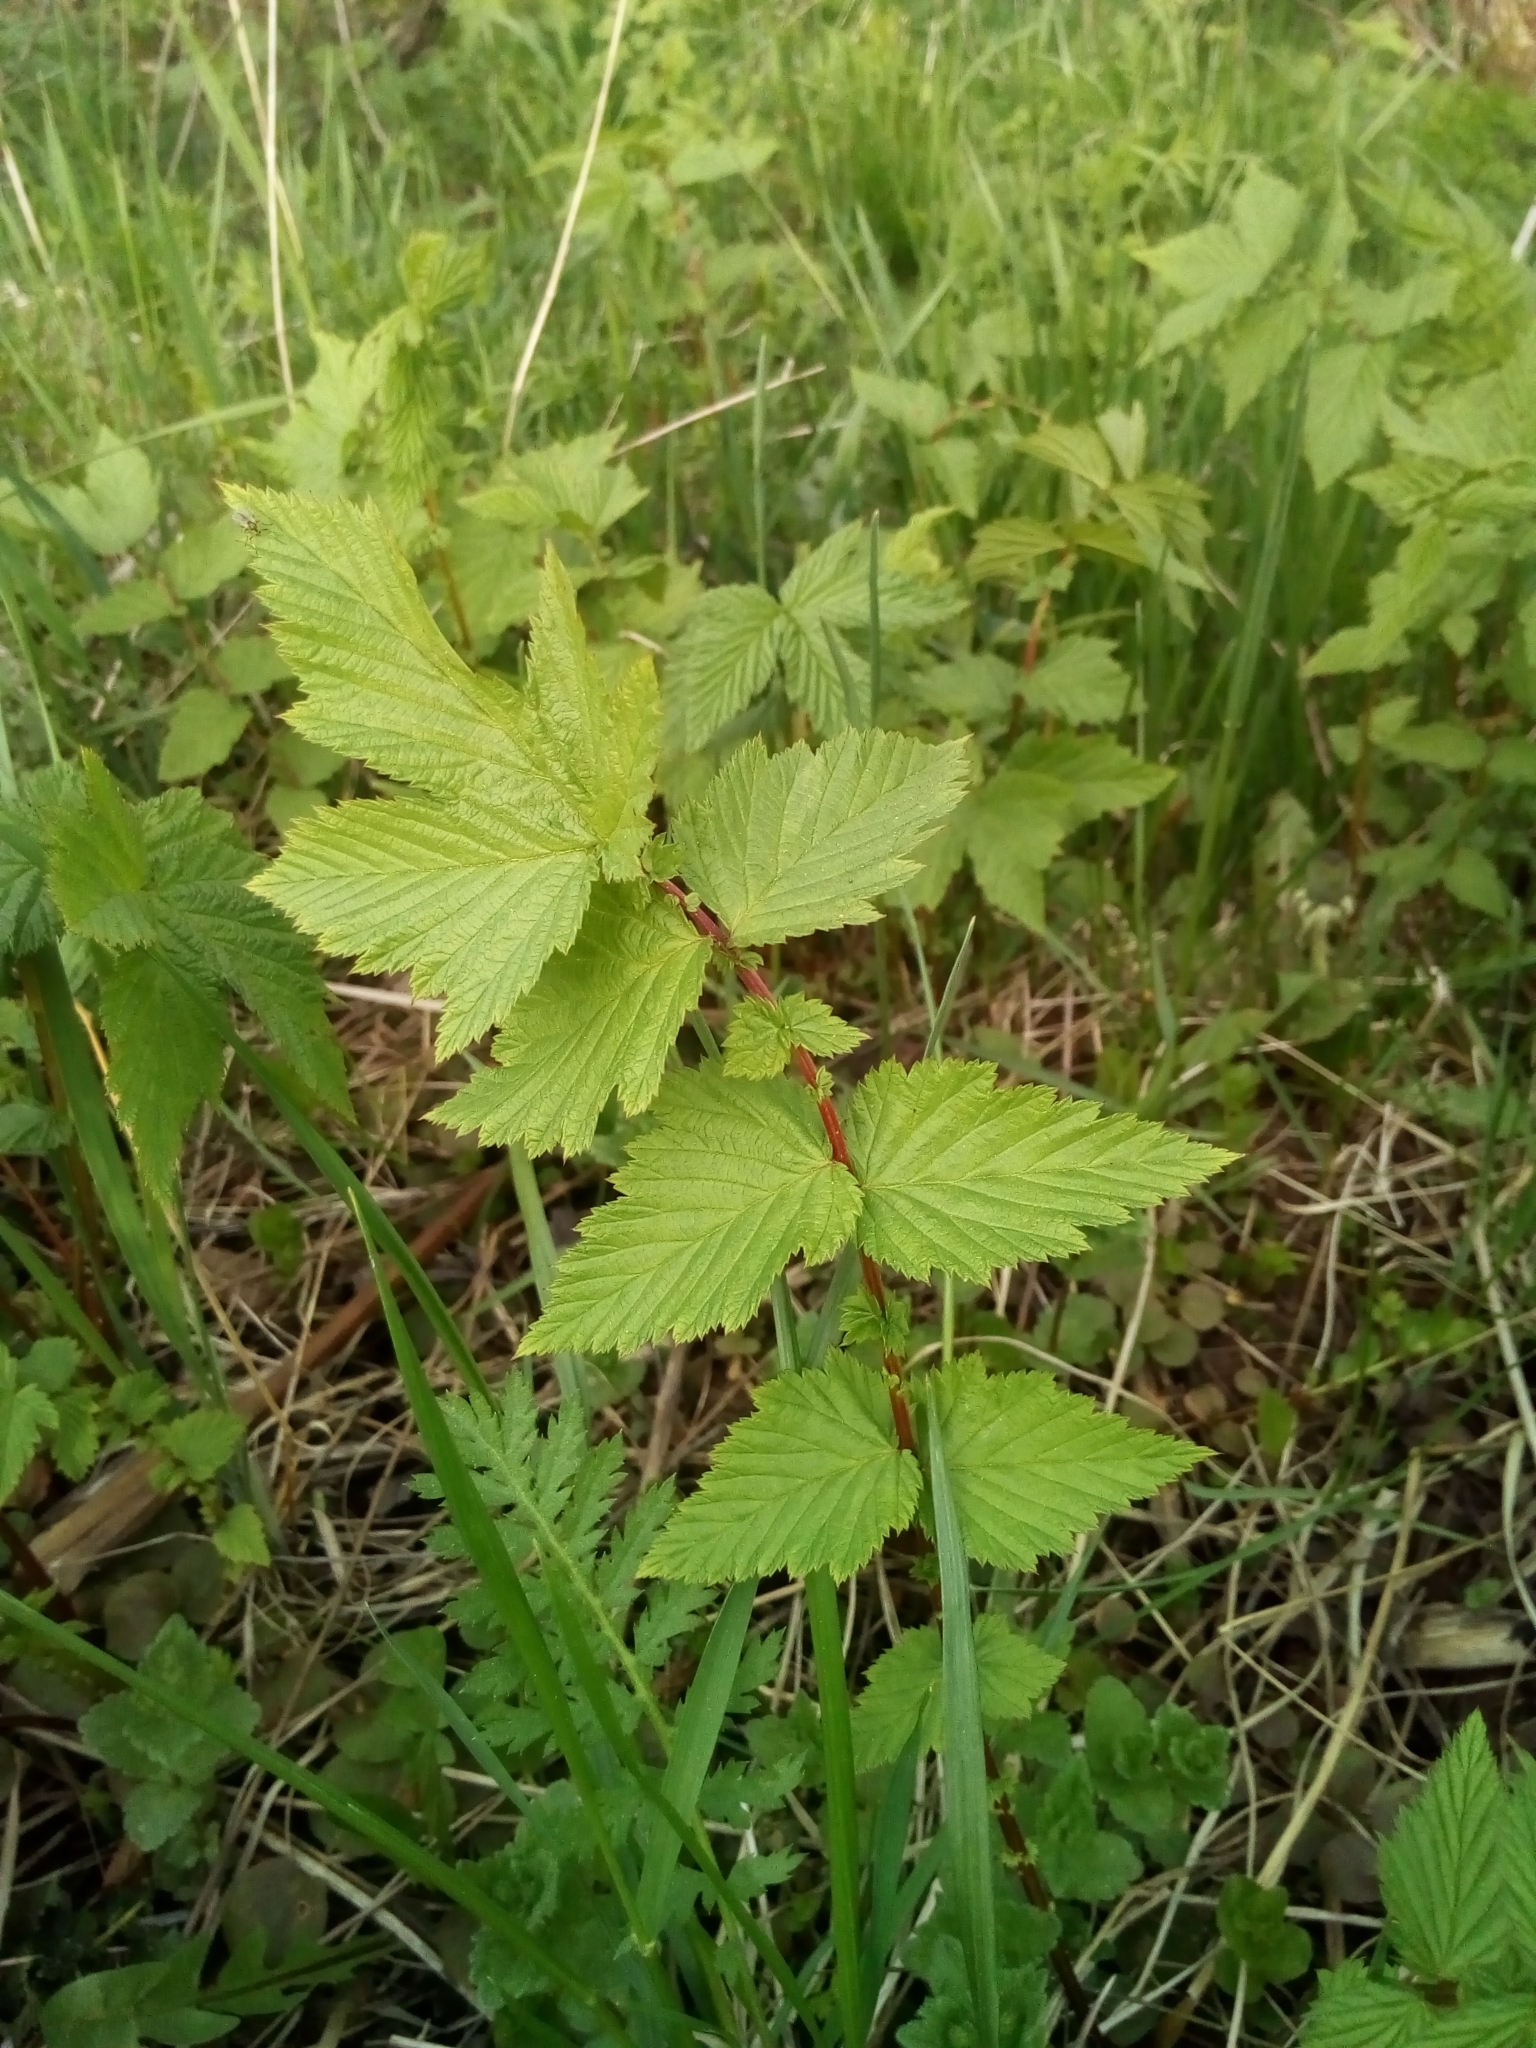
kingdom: Plantae
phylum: Tracheophyta
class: Magnoliopsida
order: Rosales
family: Rosaceae
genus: Filipendula
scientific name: Filipendula ulmaria
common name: Meadowsweet
